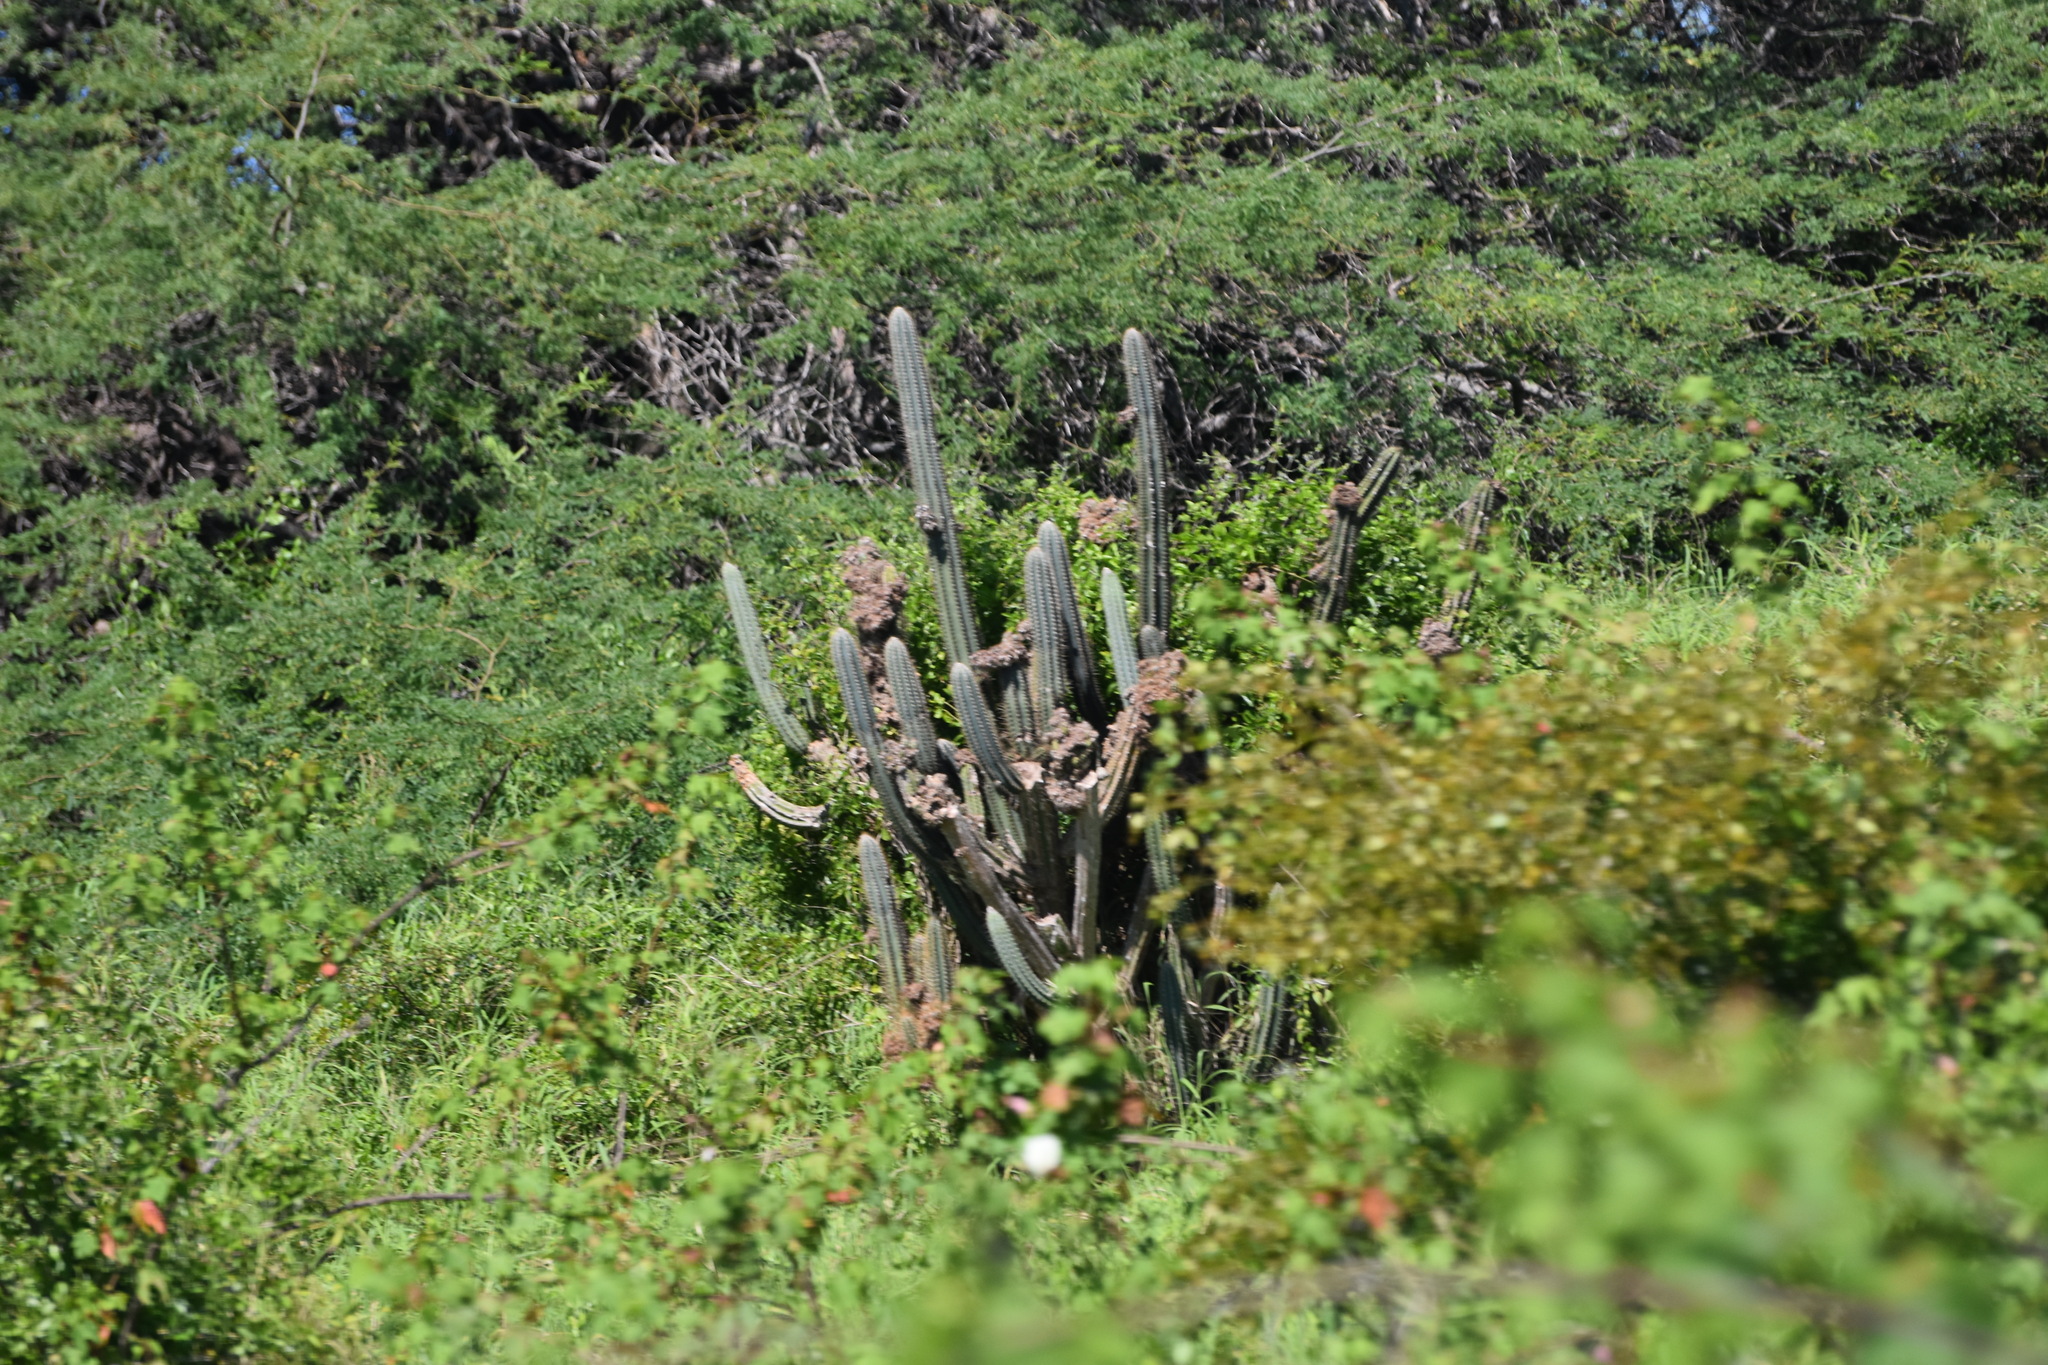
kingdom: Plantae
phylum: Tracheophyta
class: Magnoliopsida
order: Caryophyllales
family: Cactaceae
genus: Pilosocereus
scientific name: Pilosocereus armatus
